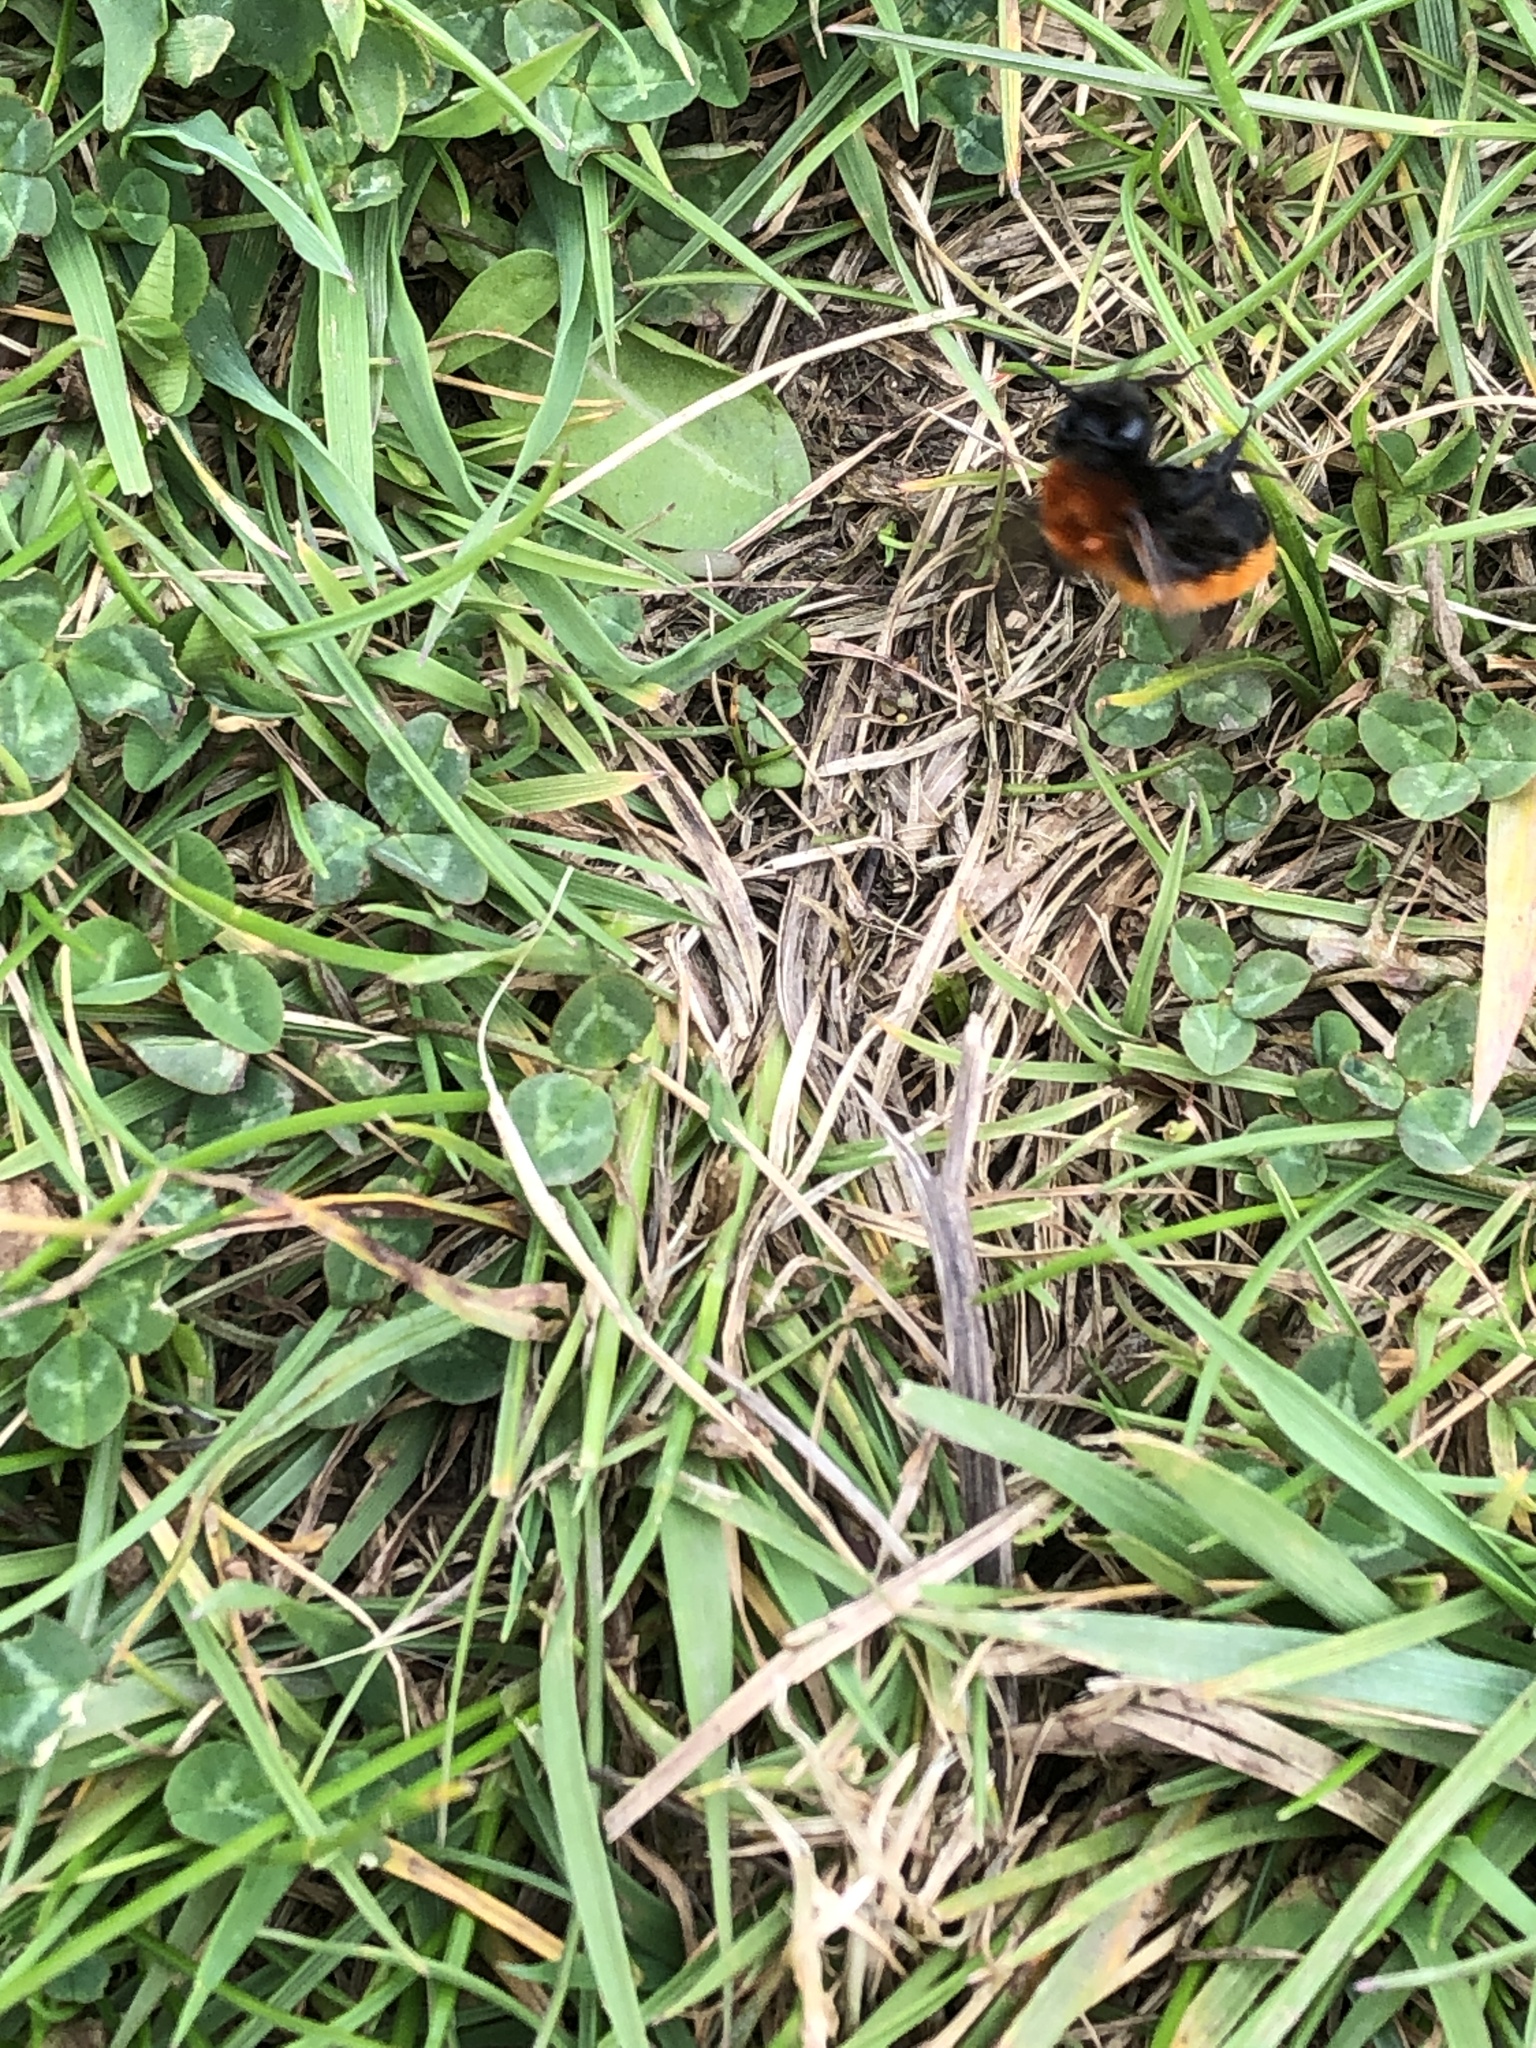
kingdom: Animalia
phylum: Arthropoda
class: Insecta
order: Hymenoptera
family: Andrenidae
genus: Andrena
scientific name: Andrena fulva
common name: Tawny mining bee
